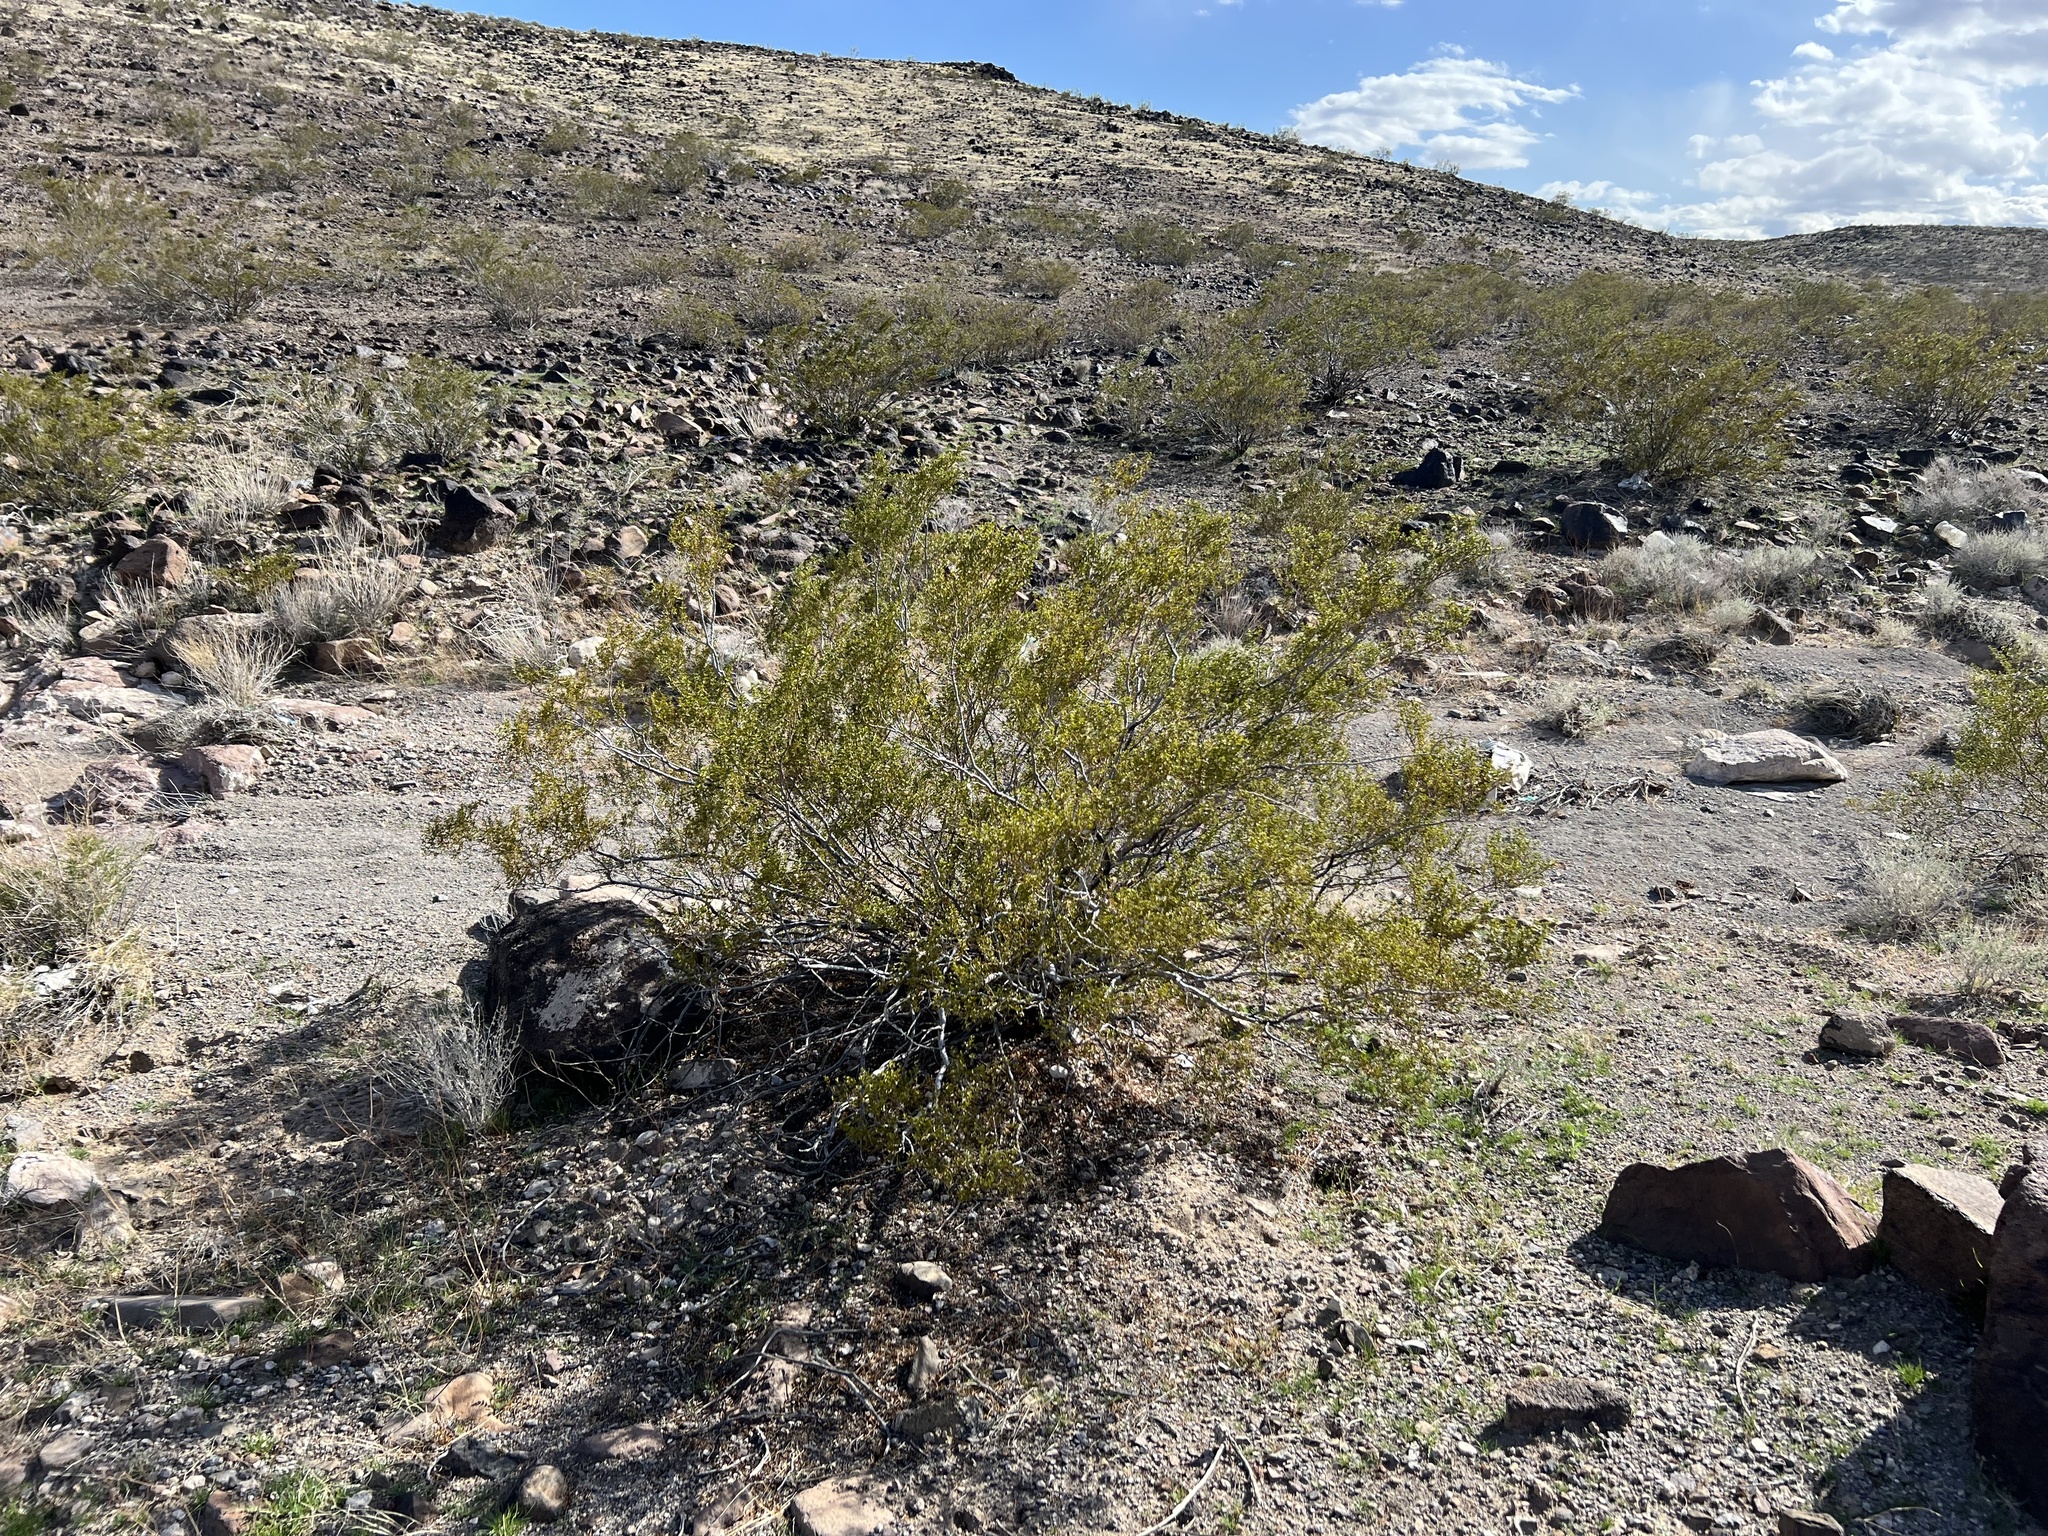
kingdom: Plantae
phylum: Tracheophyta
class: Magnoliopsida
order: Zygophyllales
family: Zygophyllaceae
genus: Larrea
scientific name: Larrea tridentata
